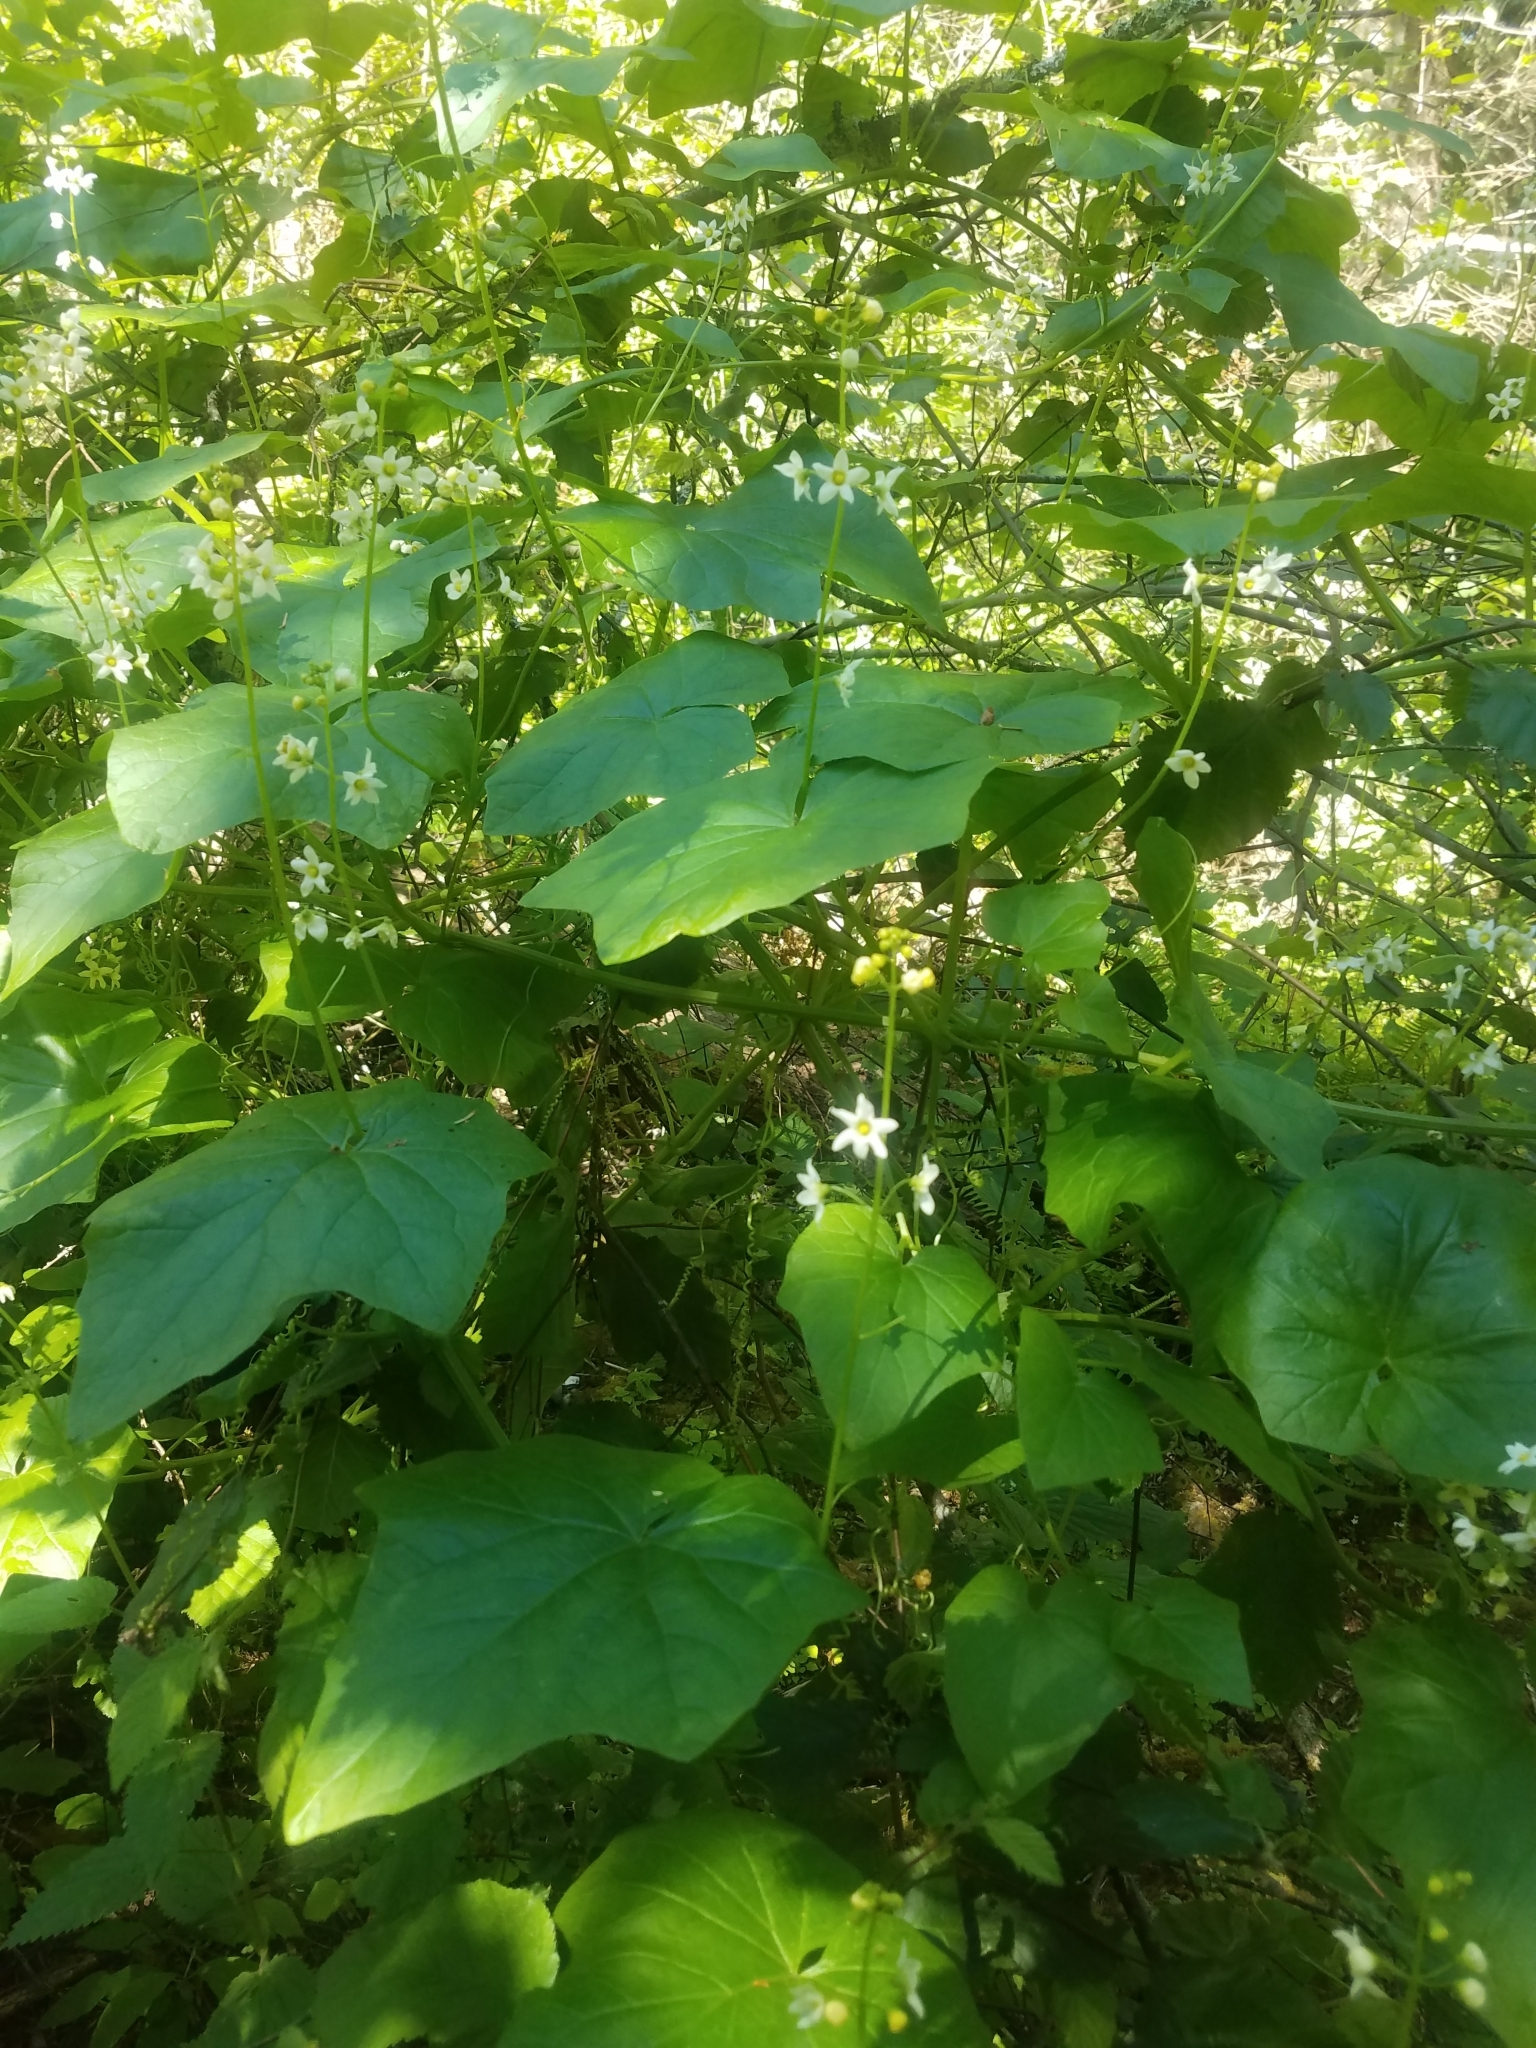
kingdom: Plantae
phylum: Tracheophyta
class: Magnoliopsida
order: Cucurbitales
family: Cucurbitaceae
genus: Marah
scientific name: Marah oregana
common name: Coastal manroot
